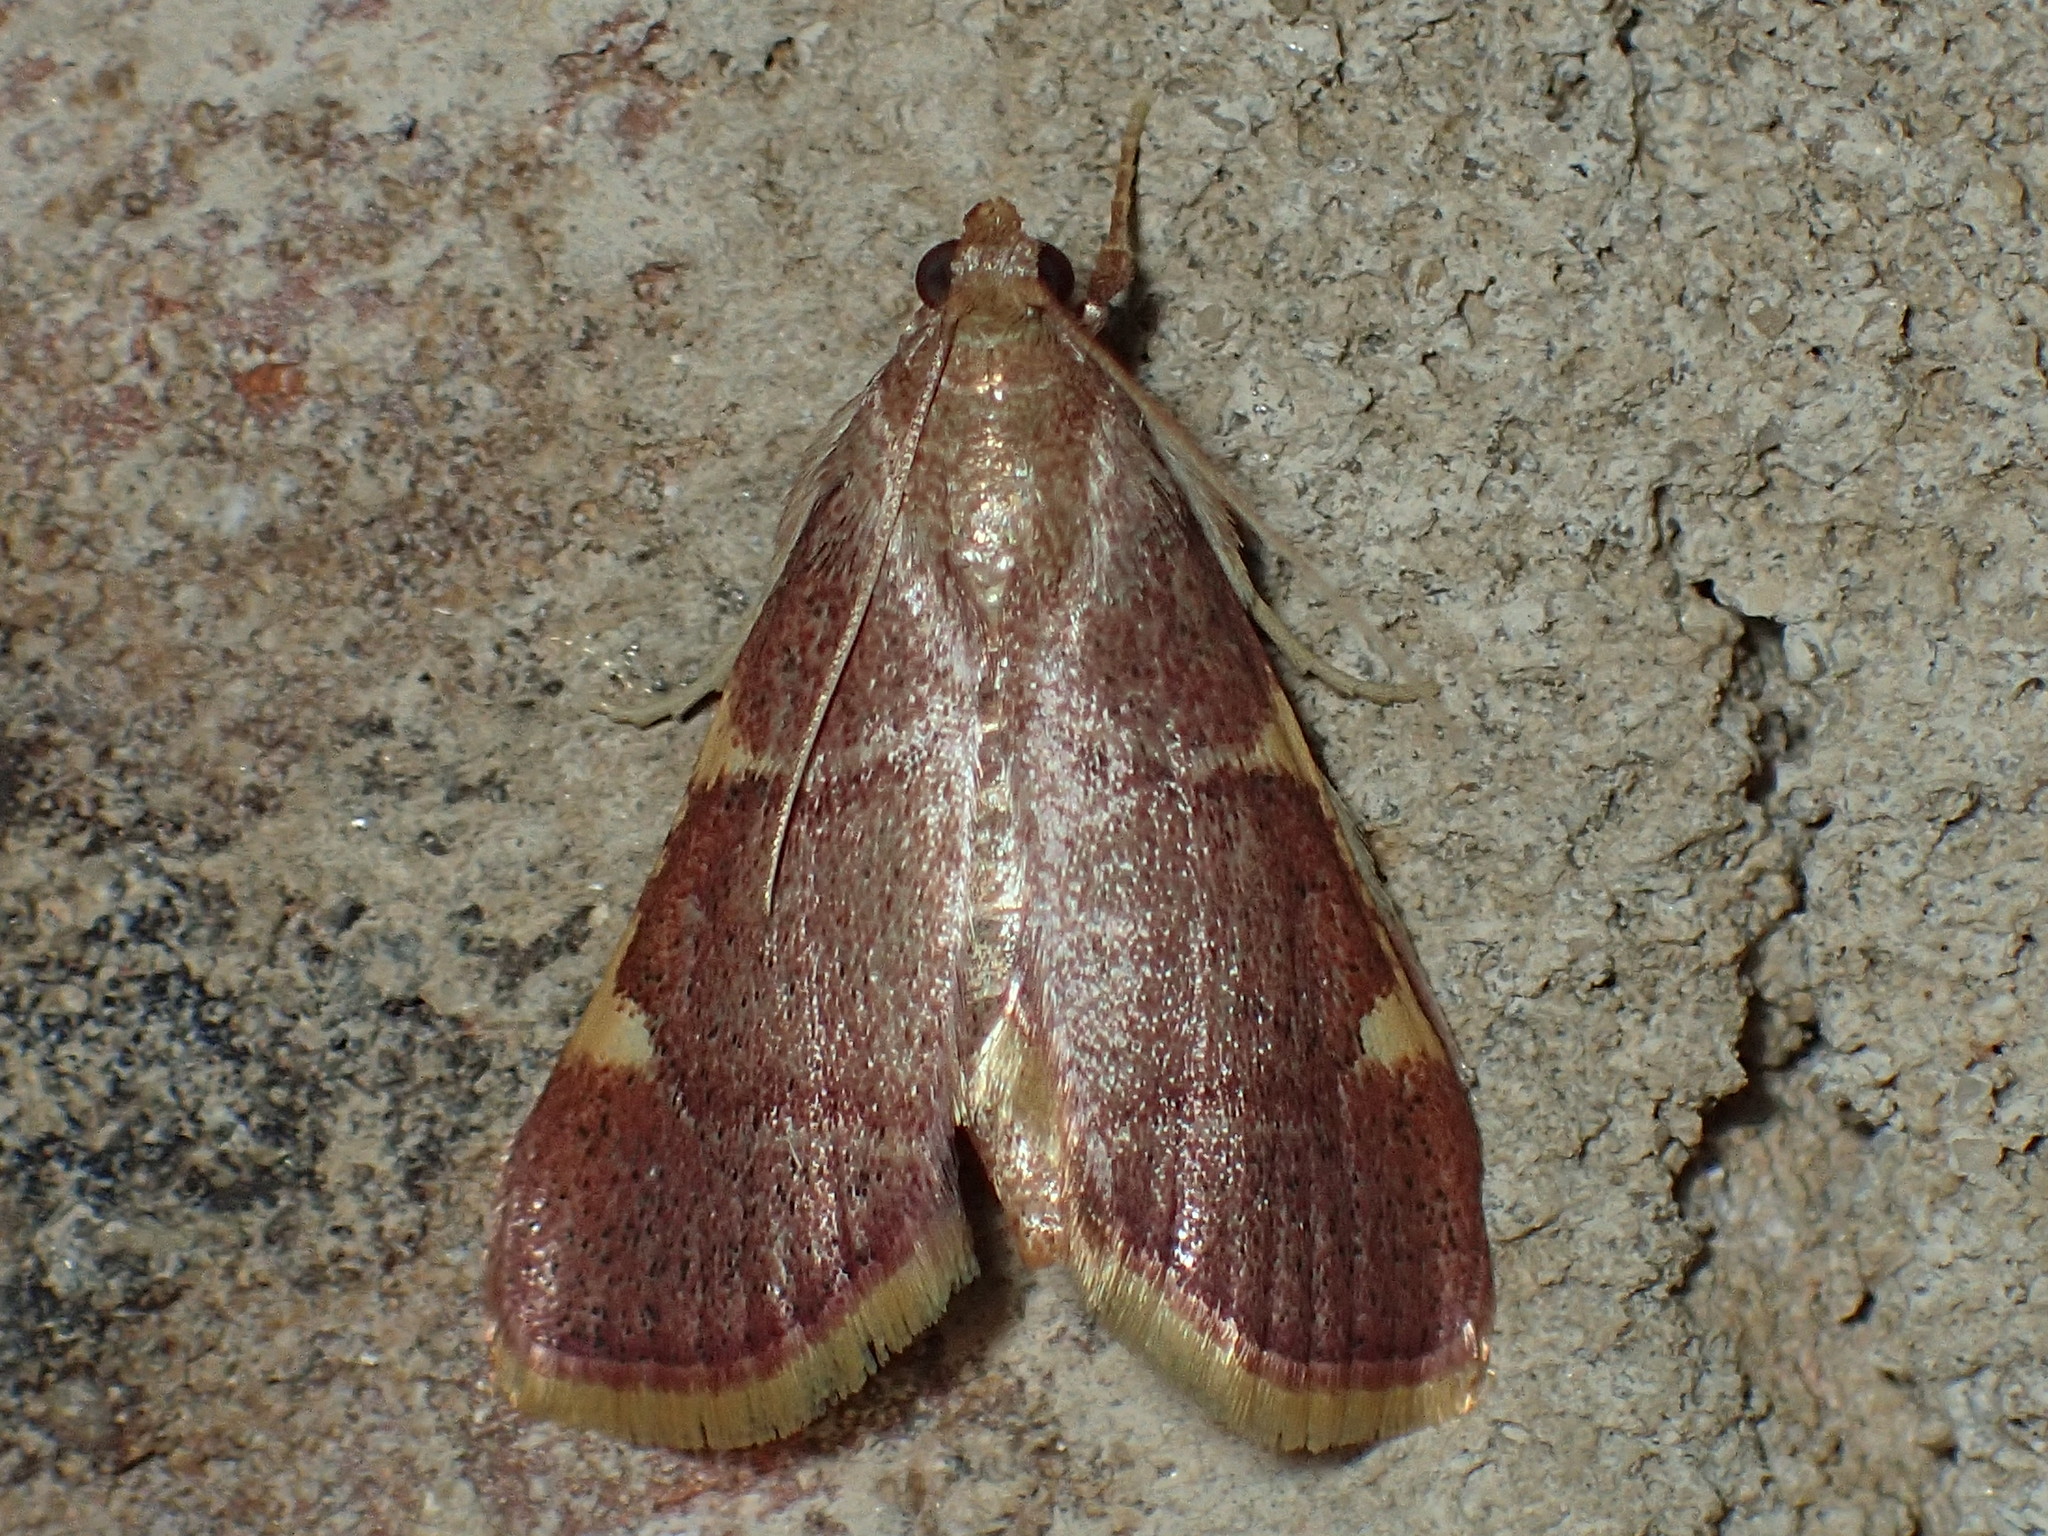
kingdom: Animalia
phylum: Arthropoda
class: Insecta
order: Lepidoptera
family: Pyralidae
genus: Hypsopygia
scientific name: Hypsopygia olinalis
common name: Yellow-fringed dolichomia moth
